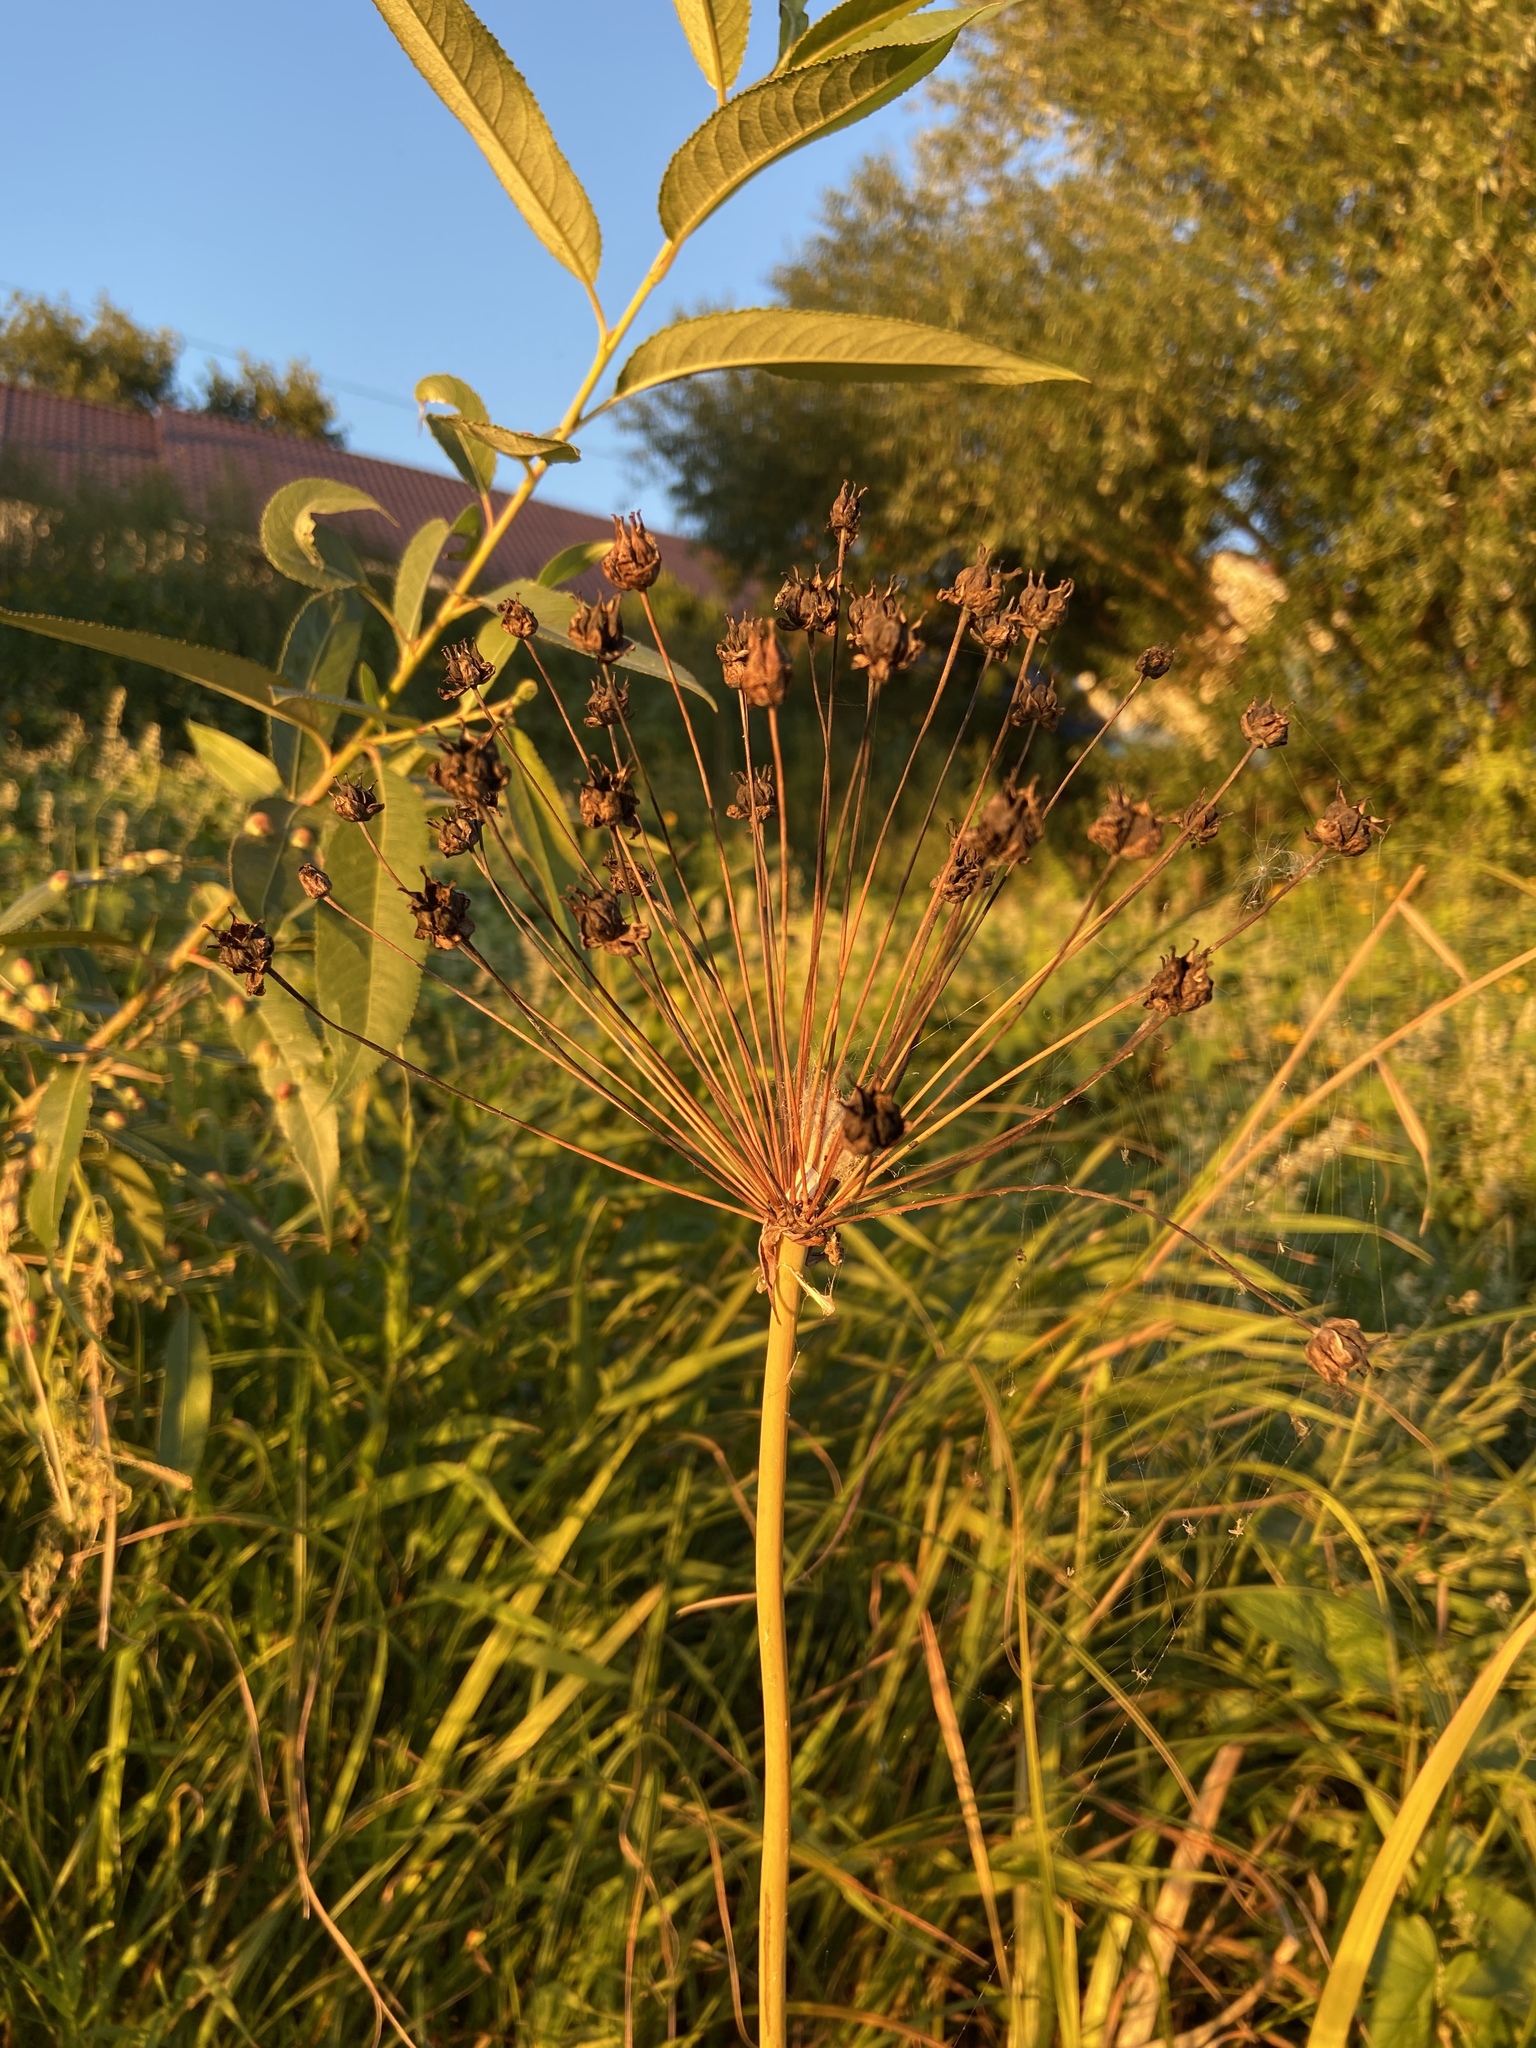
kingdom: Plantae
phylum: Tracheophyta
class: Liliopsida
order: Alismatales
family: Butomaceae
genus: Butomus
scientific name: Butomus umbellatus
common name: Flowering-rush
